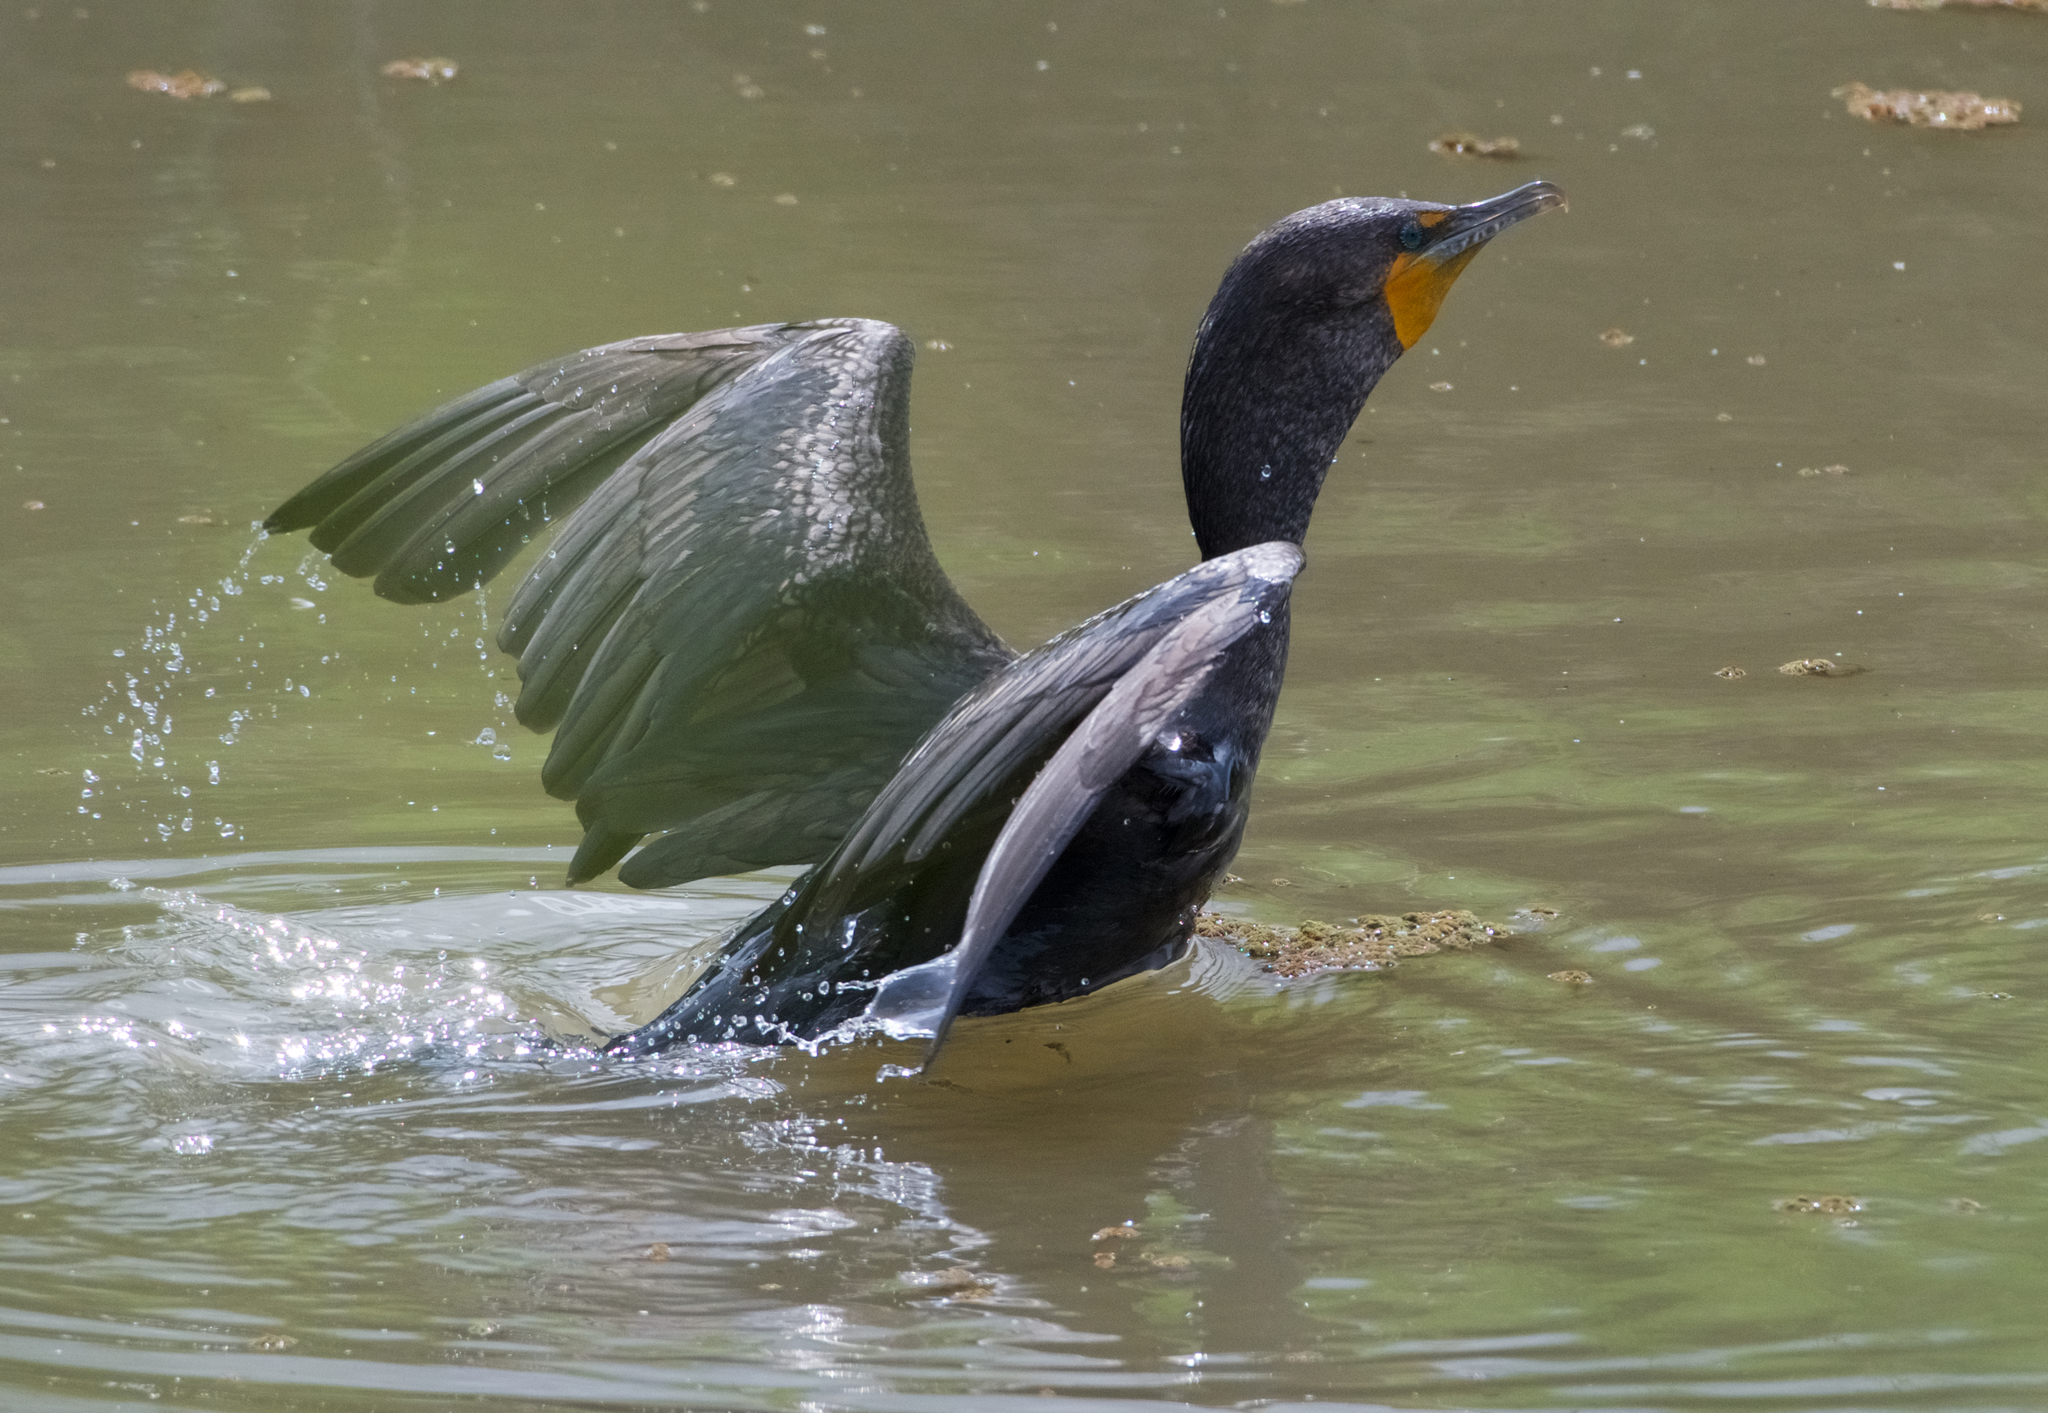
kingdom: Animalia
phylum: Chordata
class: Aves
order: Suliformes
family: Phalacrocoracidae
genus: Phalacrocorax
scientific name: Phalacrocorax auritus
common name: Double-crested cormorant
